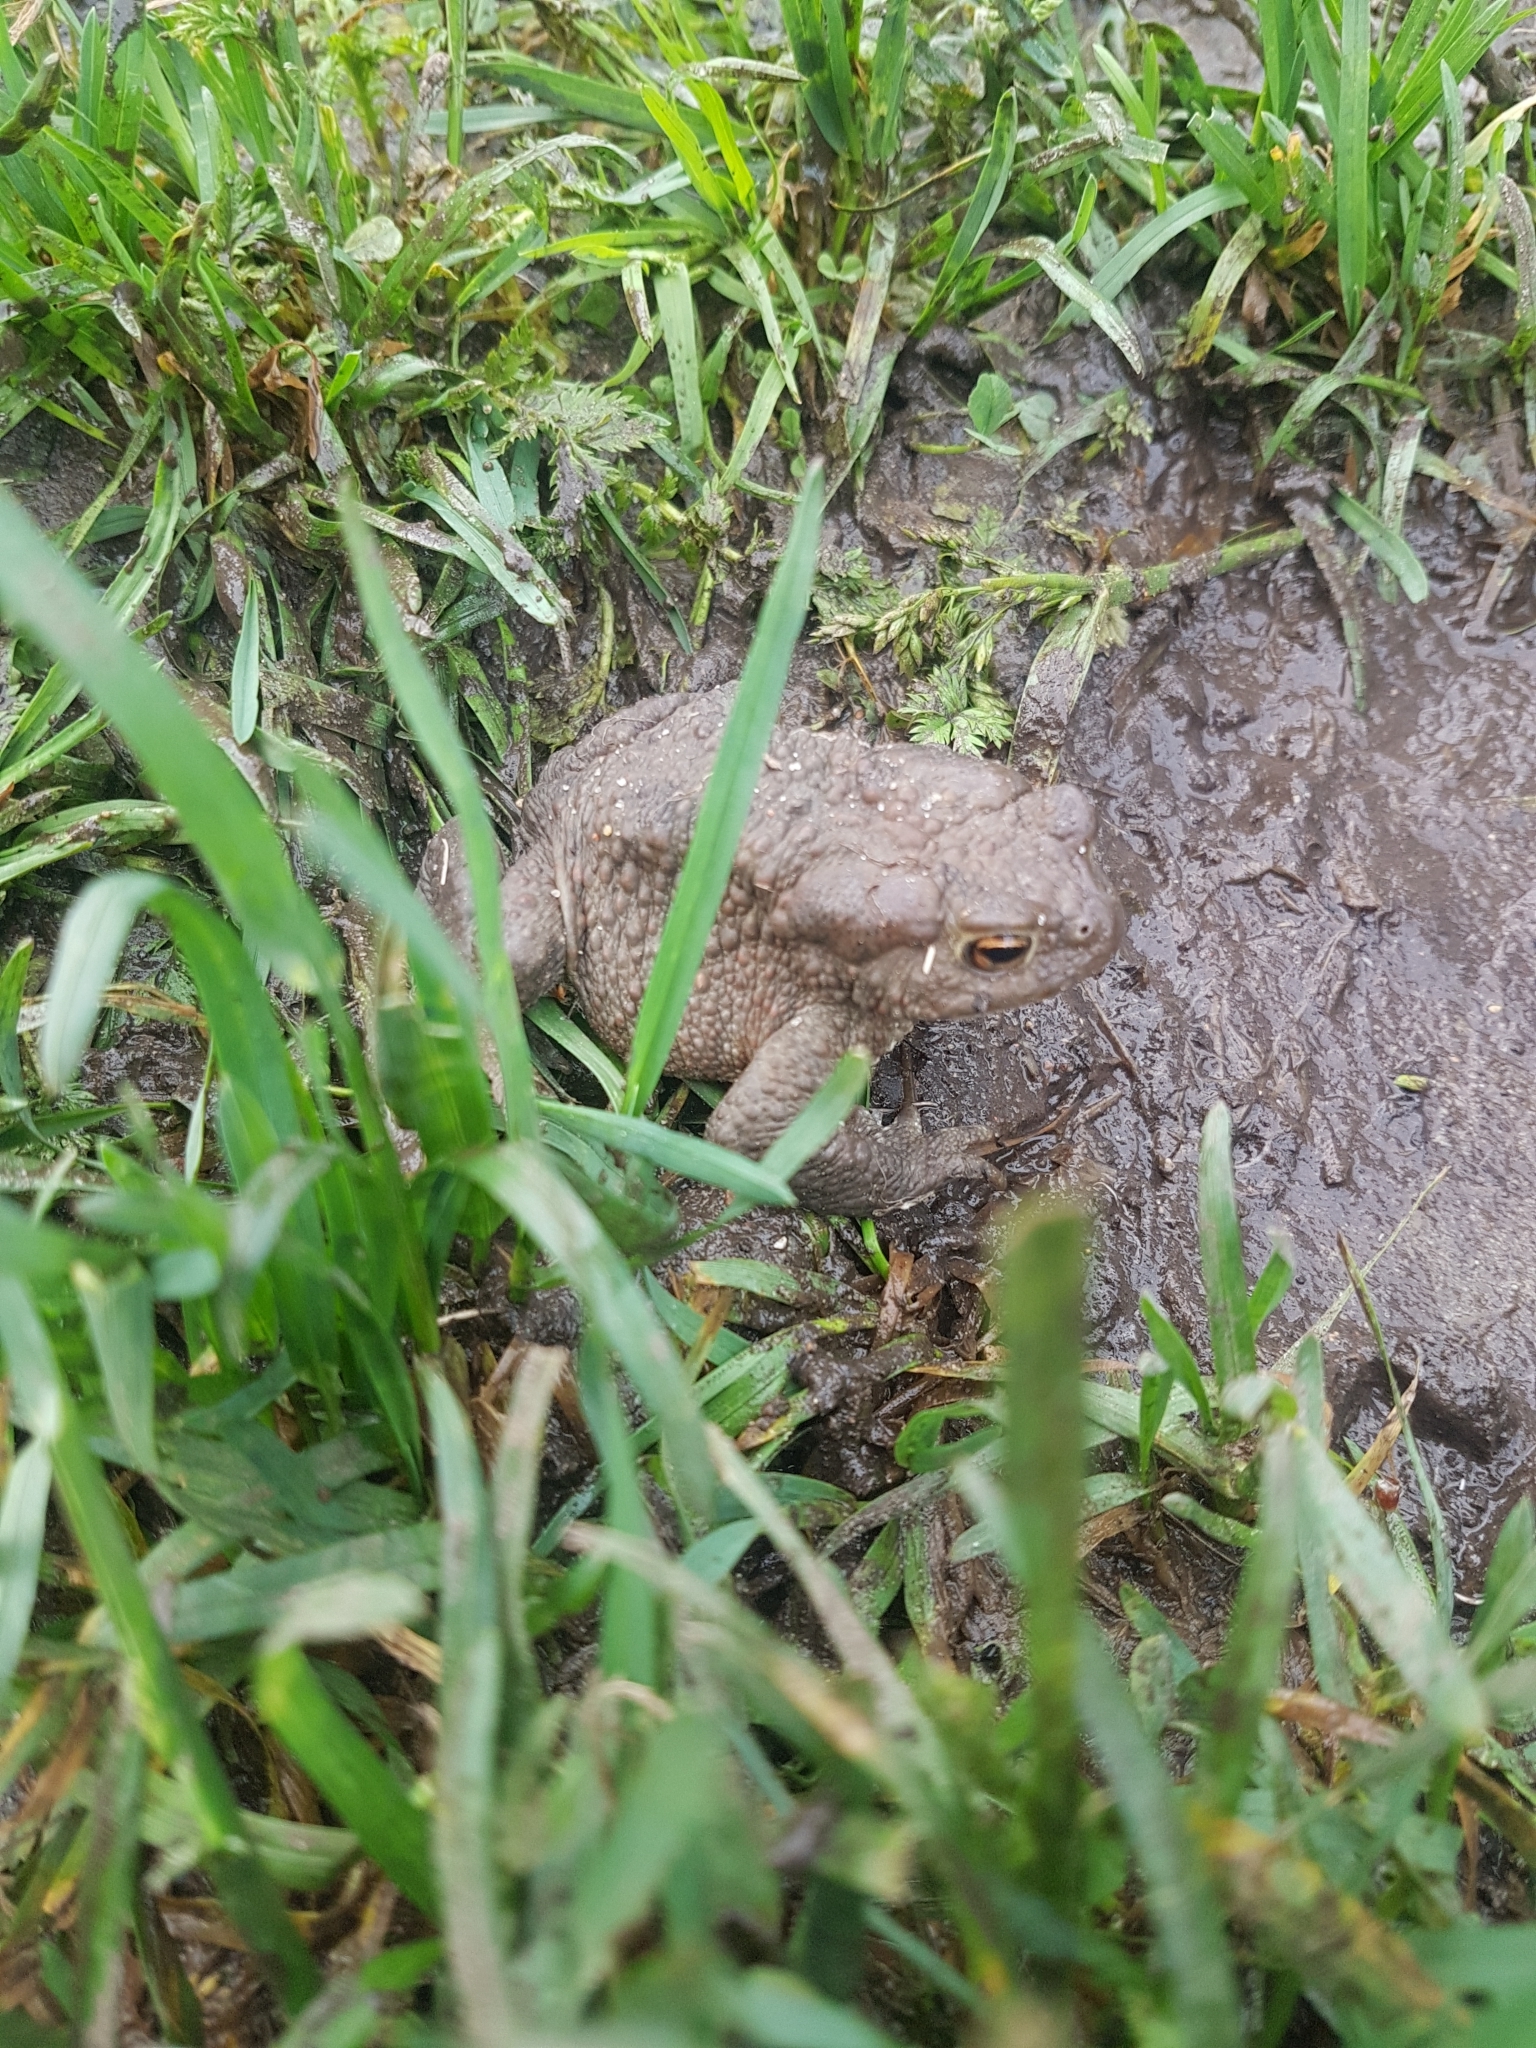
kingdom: Animalia
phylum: Chordata
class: Amphibia
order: Anura
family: Bufonidae
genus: Bufo
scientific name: Bufo bufo
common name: Common toad
